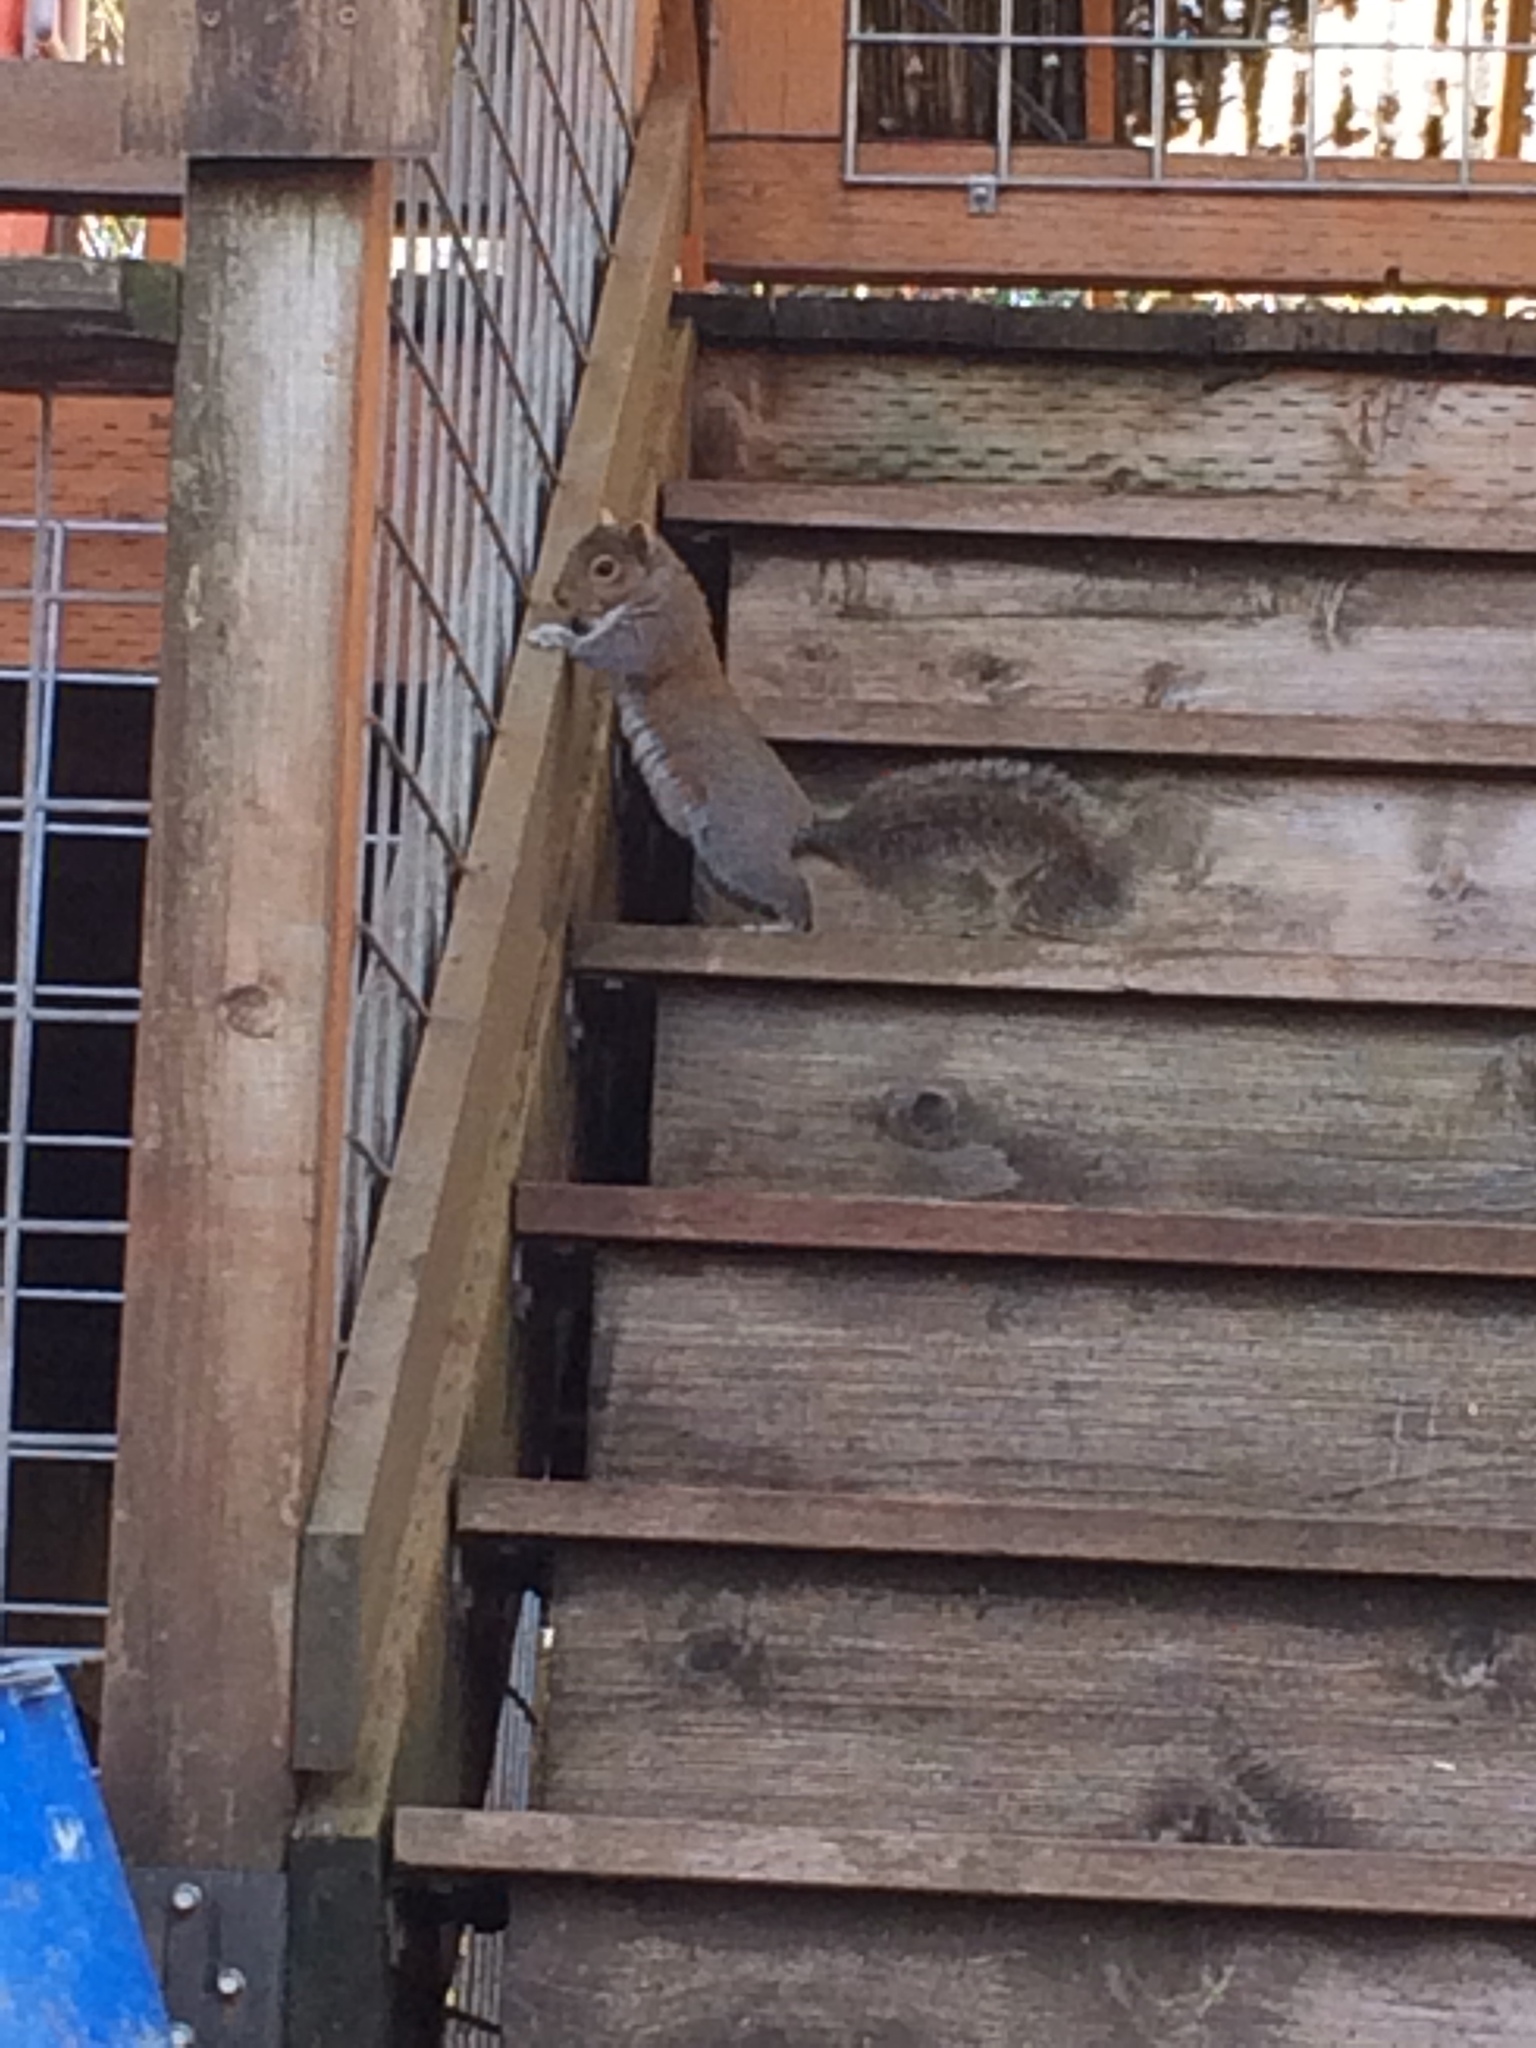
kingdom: Animalia
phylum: Chordata
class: Mammalia
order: Rodentia
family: Sciuridae
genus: Sciurus
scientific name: Sciurus carolinensis
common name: Eastern gray squirrel
